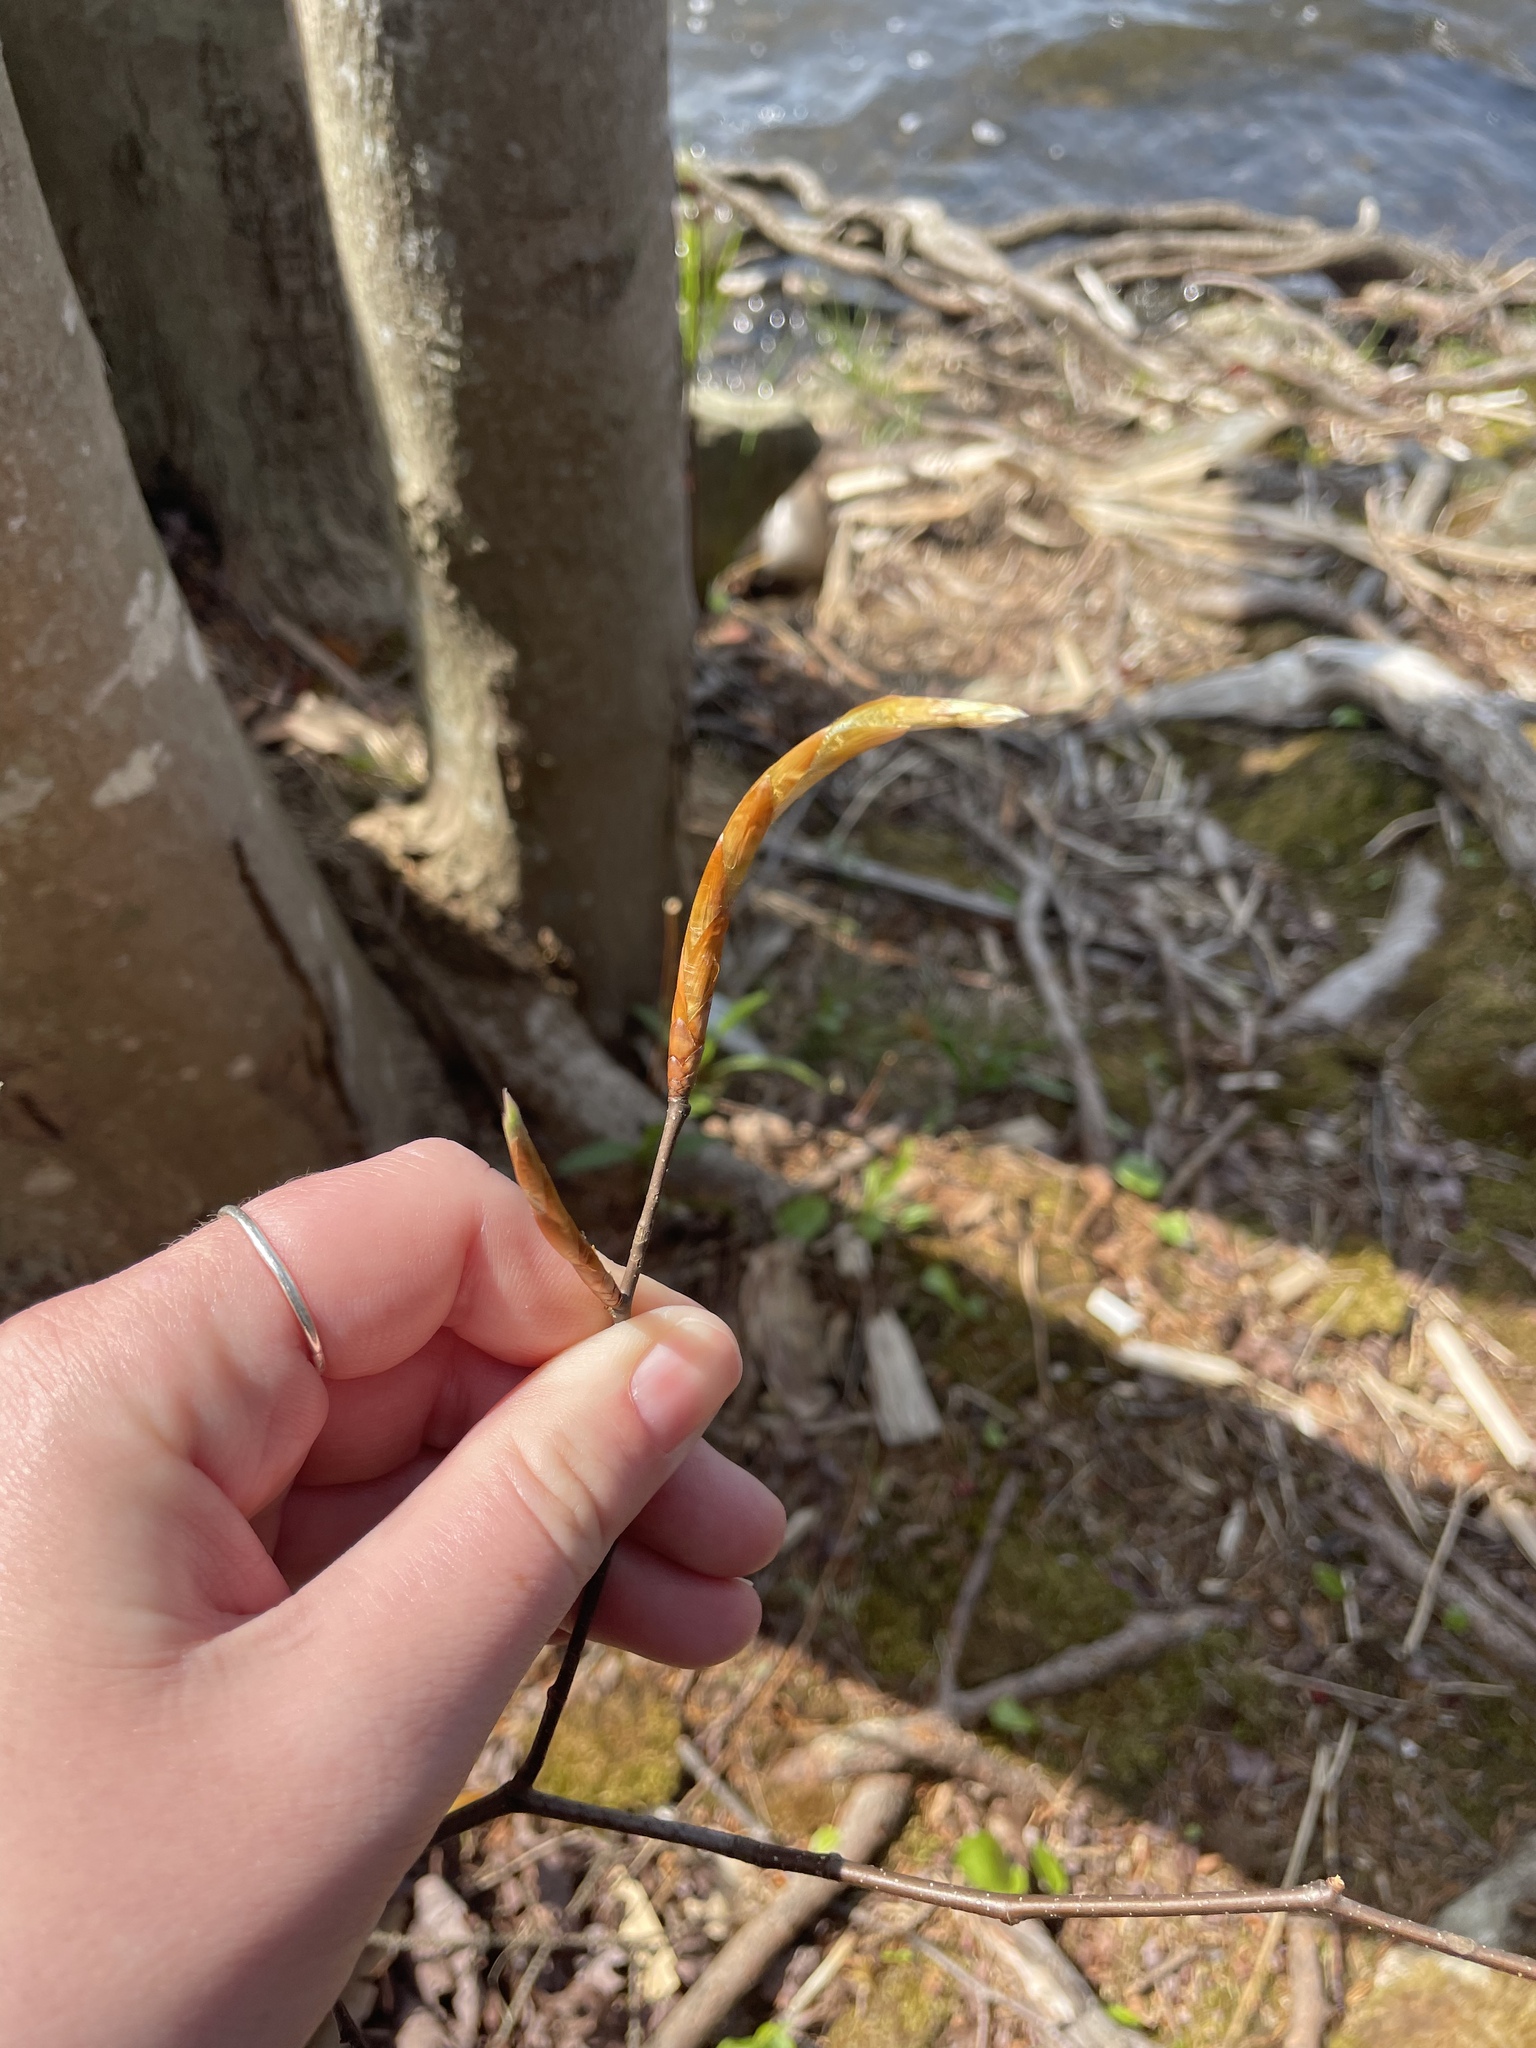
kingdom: Plantae
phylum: Tracheophyta
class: Magnoliopsida
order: Fagales
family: Fagaceae
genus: Fagus
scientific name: Fagus grandifolia
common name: American beech
